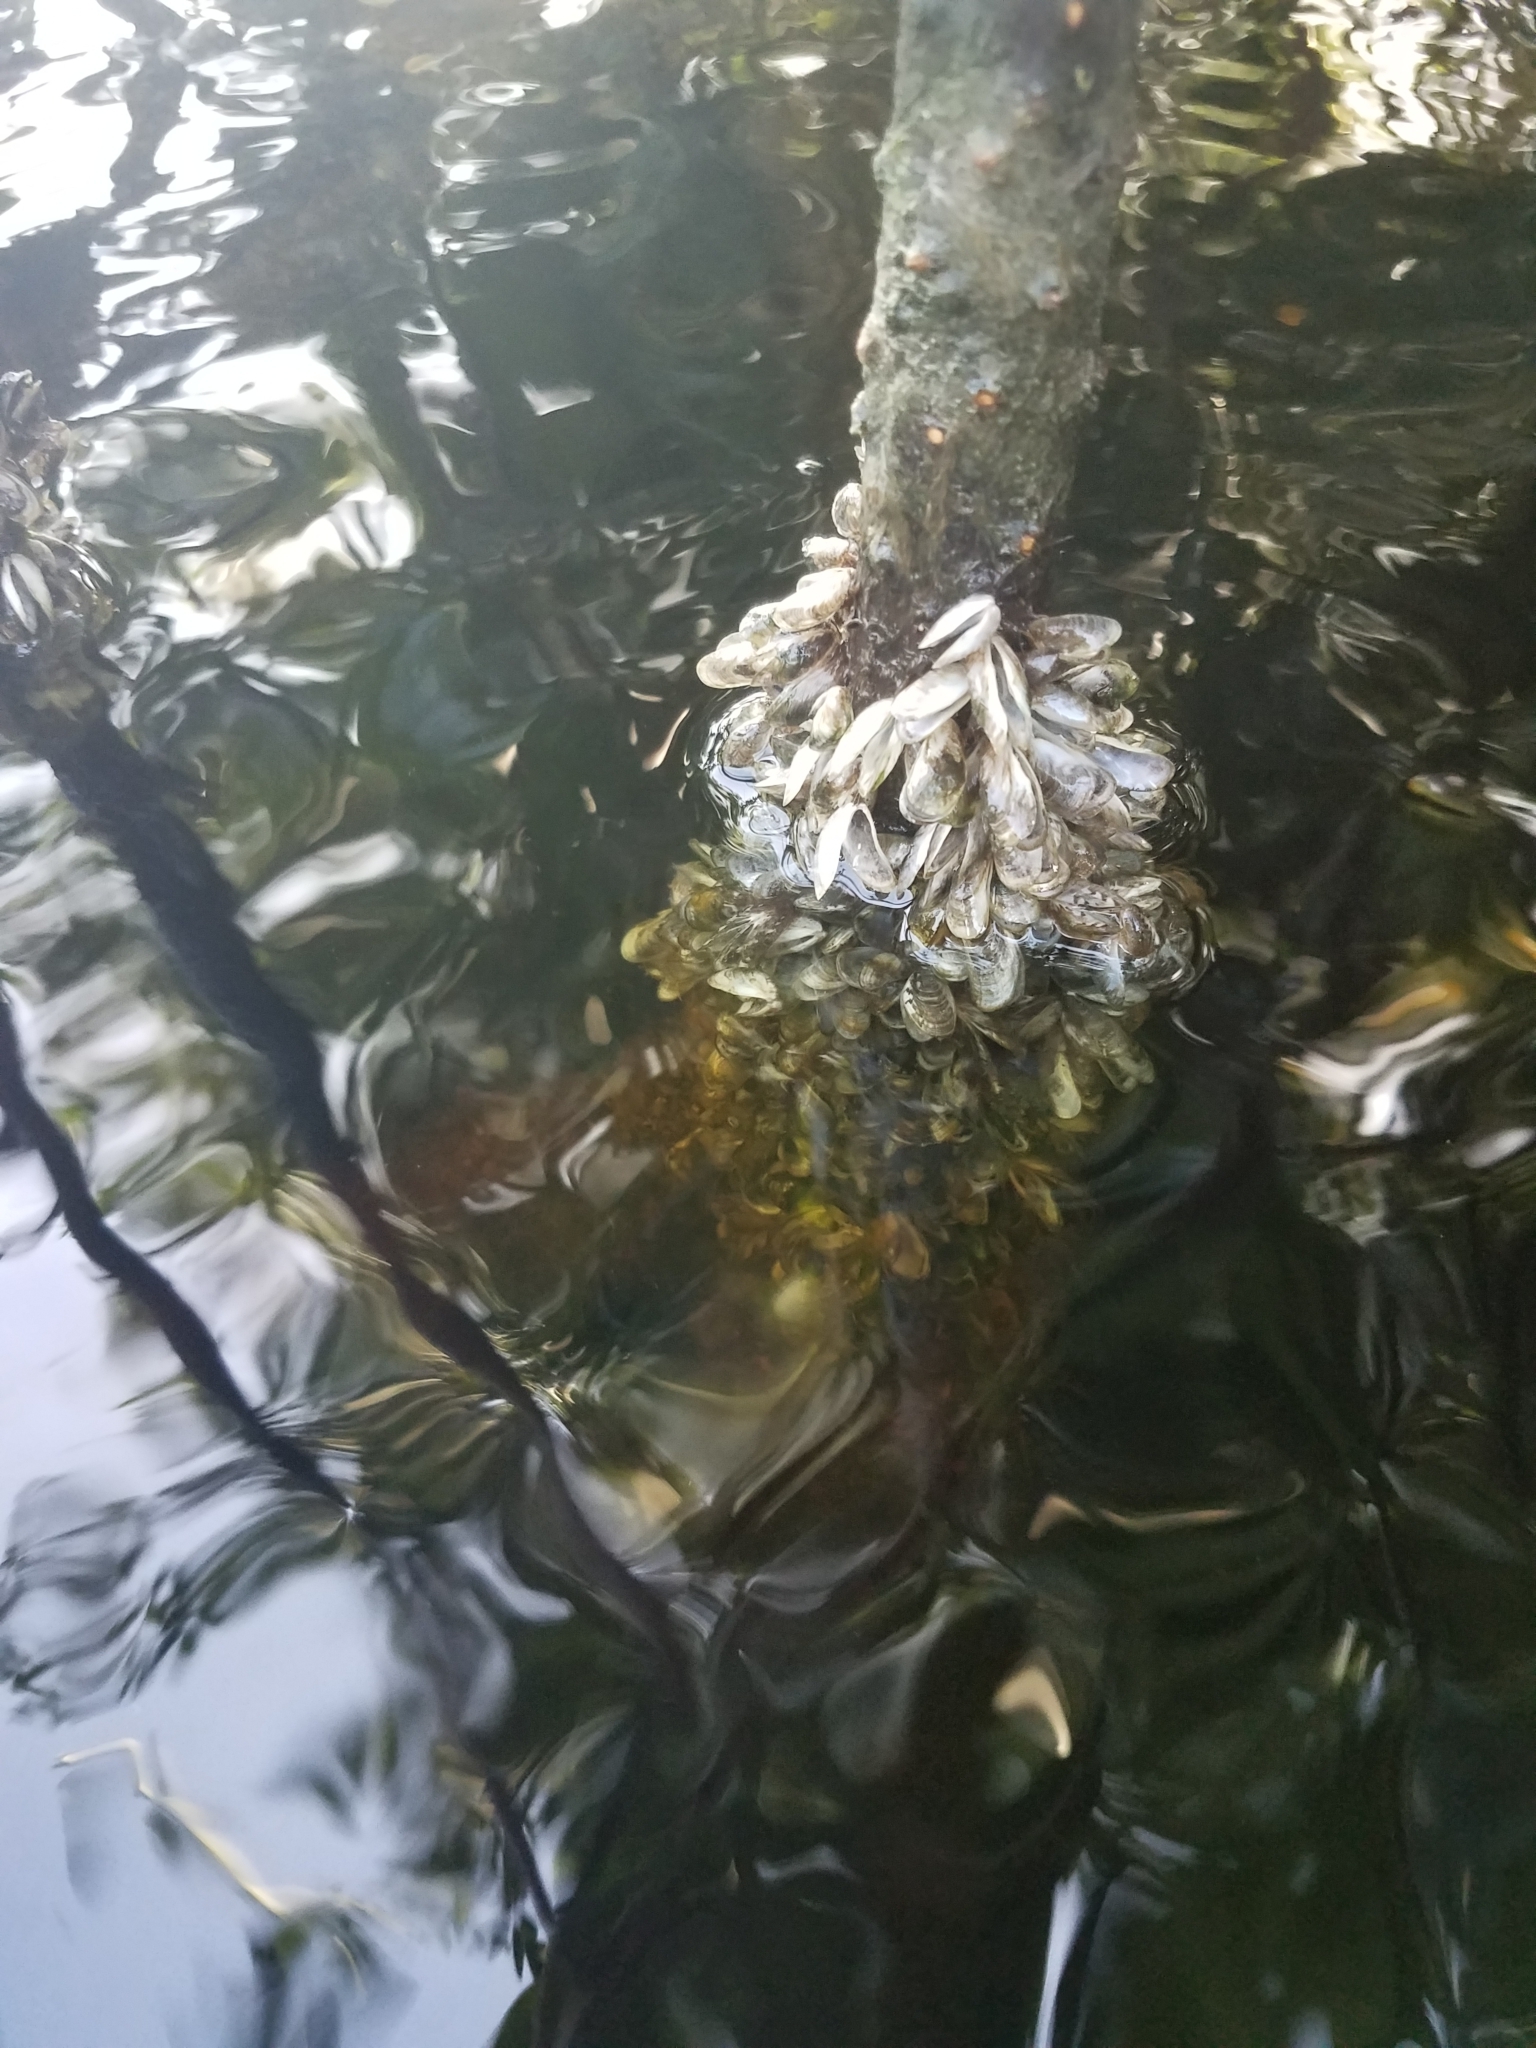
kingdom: Animalia
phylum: Mollusca
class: Bivalvia
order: Myida
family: Dreissenidae
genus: Mytilopsis
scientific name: Mytilopsis leucophaeata
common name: Conrad's false mussel
